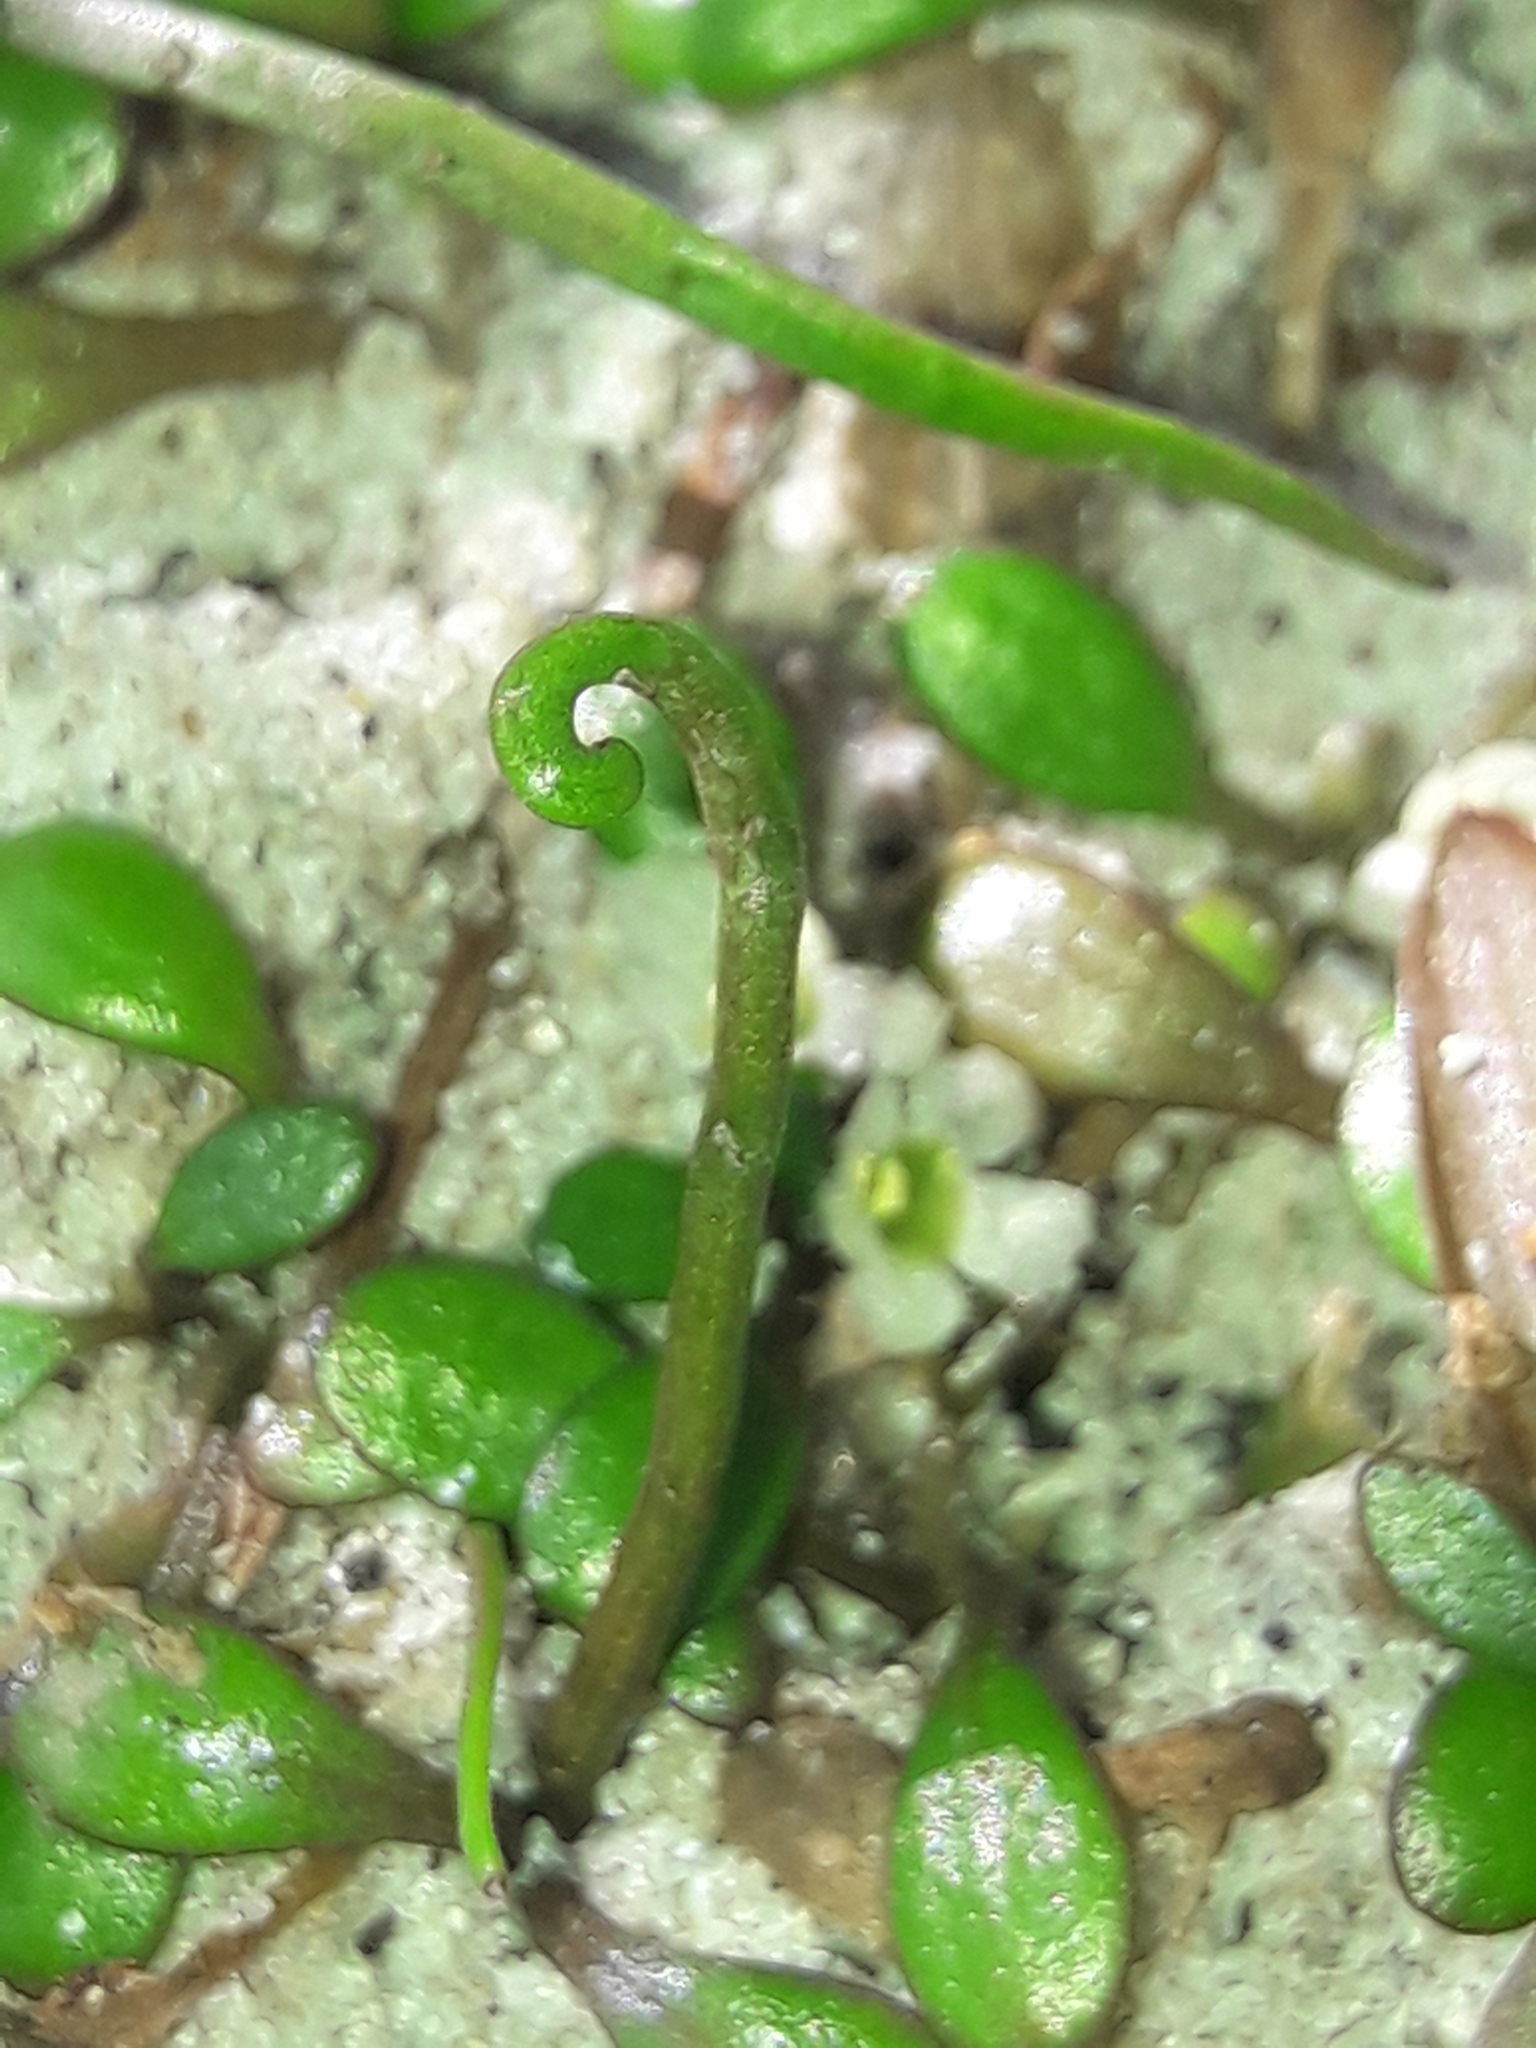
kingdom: Plantae
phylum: Tracheophyta
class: Magnoliopsida
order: Lamiales
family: Phrymaceae
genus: Glossostigma
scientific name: Glossostigma elatinoides
